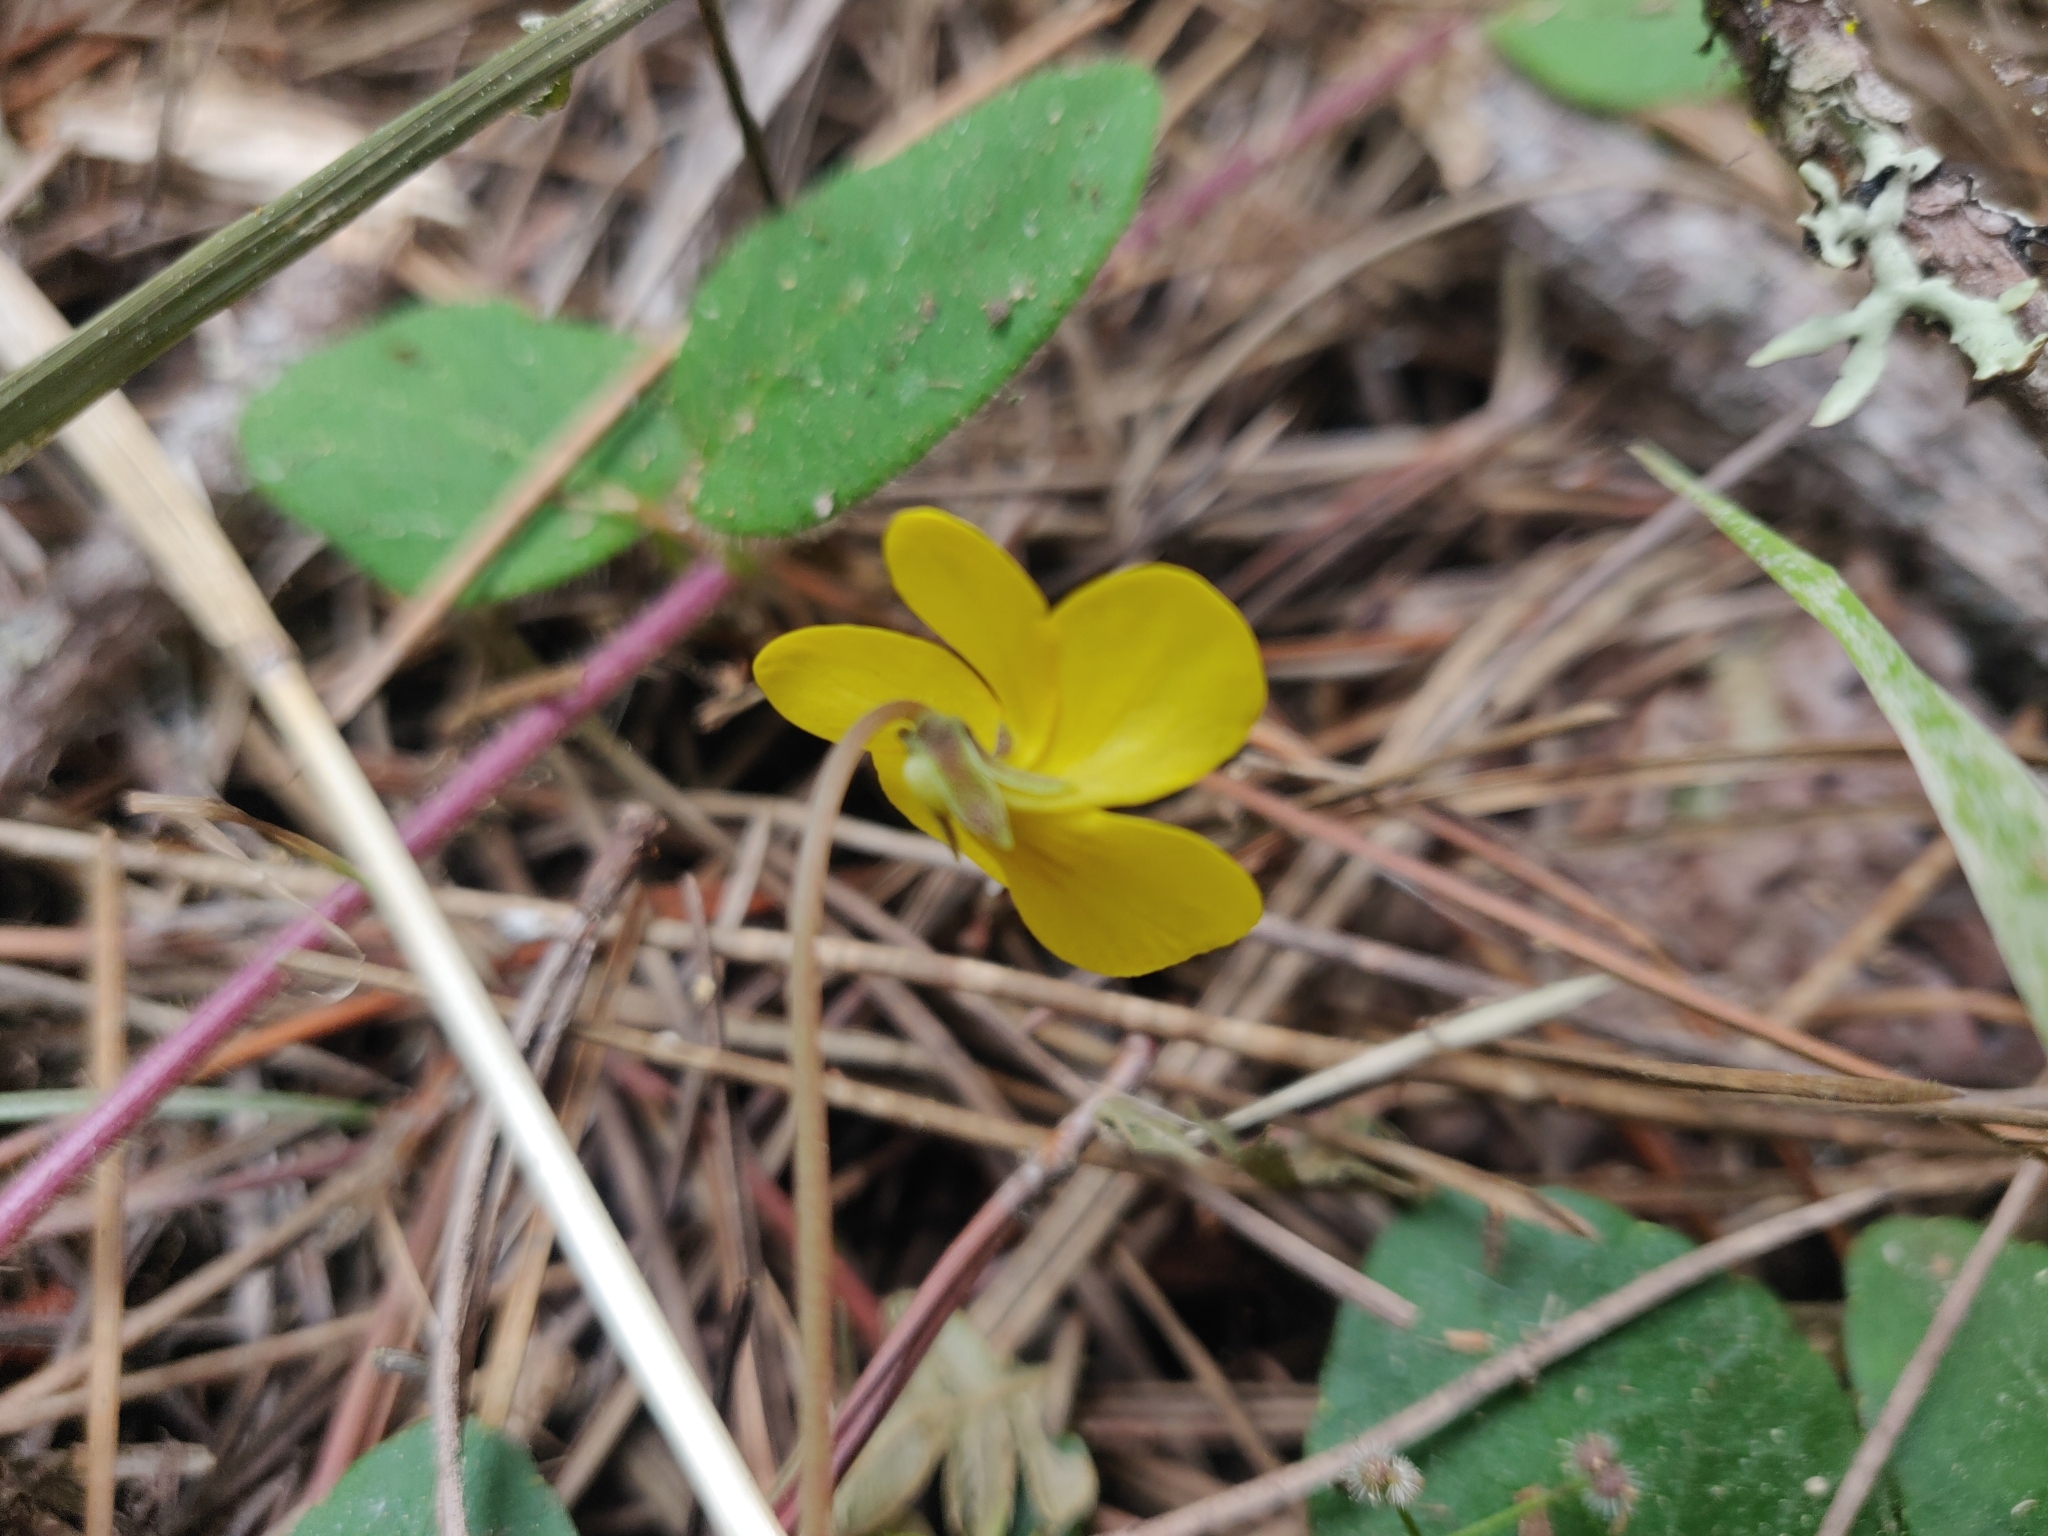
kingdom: Plantae
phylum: Tracheophyta
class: Magnoliopsida
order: Malpighiales
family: Violaceae
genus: Viola
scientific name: Viola sempervirens
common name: Evergreen violet
